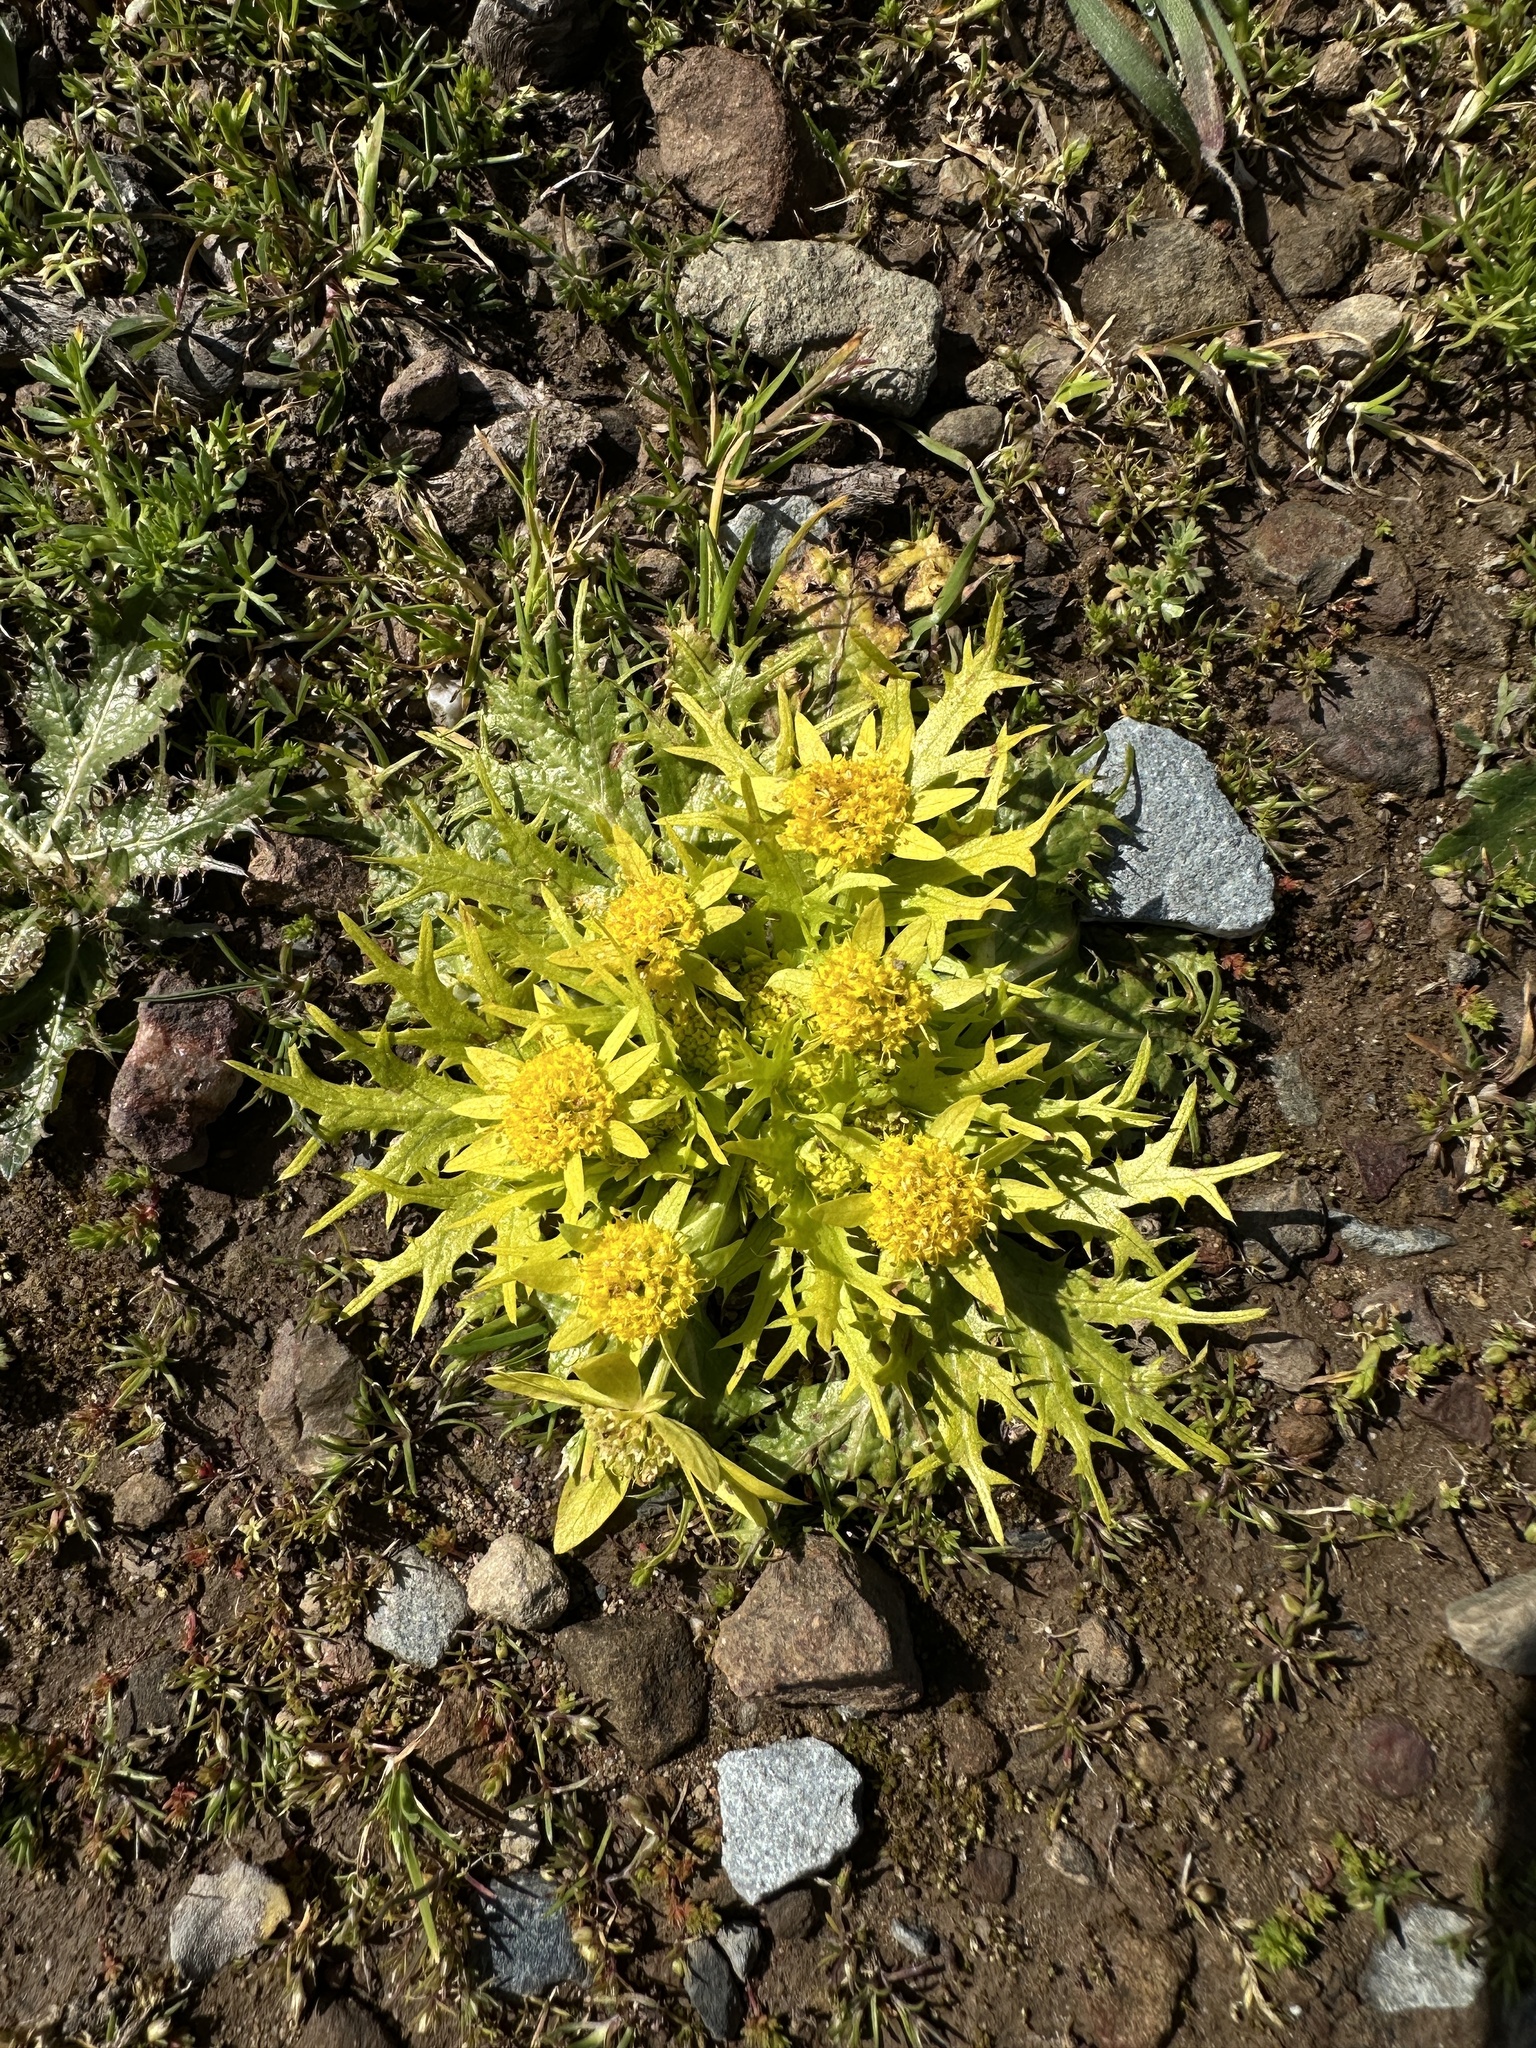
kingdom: Plantae
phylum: Tracheophyta
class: Magnoliopsida
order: Apiales
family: Apiaceae
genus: Sanicula
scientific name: Sanicula arctopoides
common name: Footsteps-of-spring
